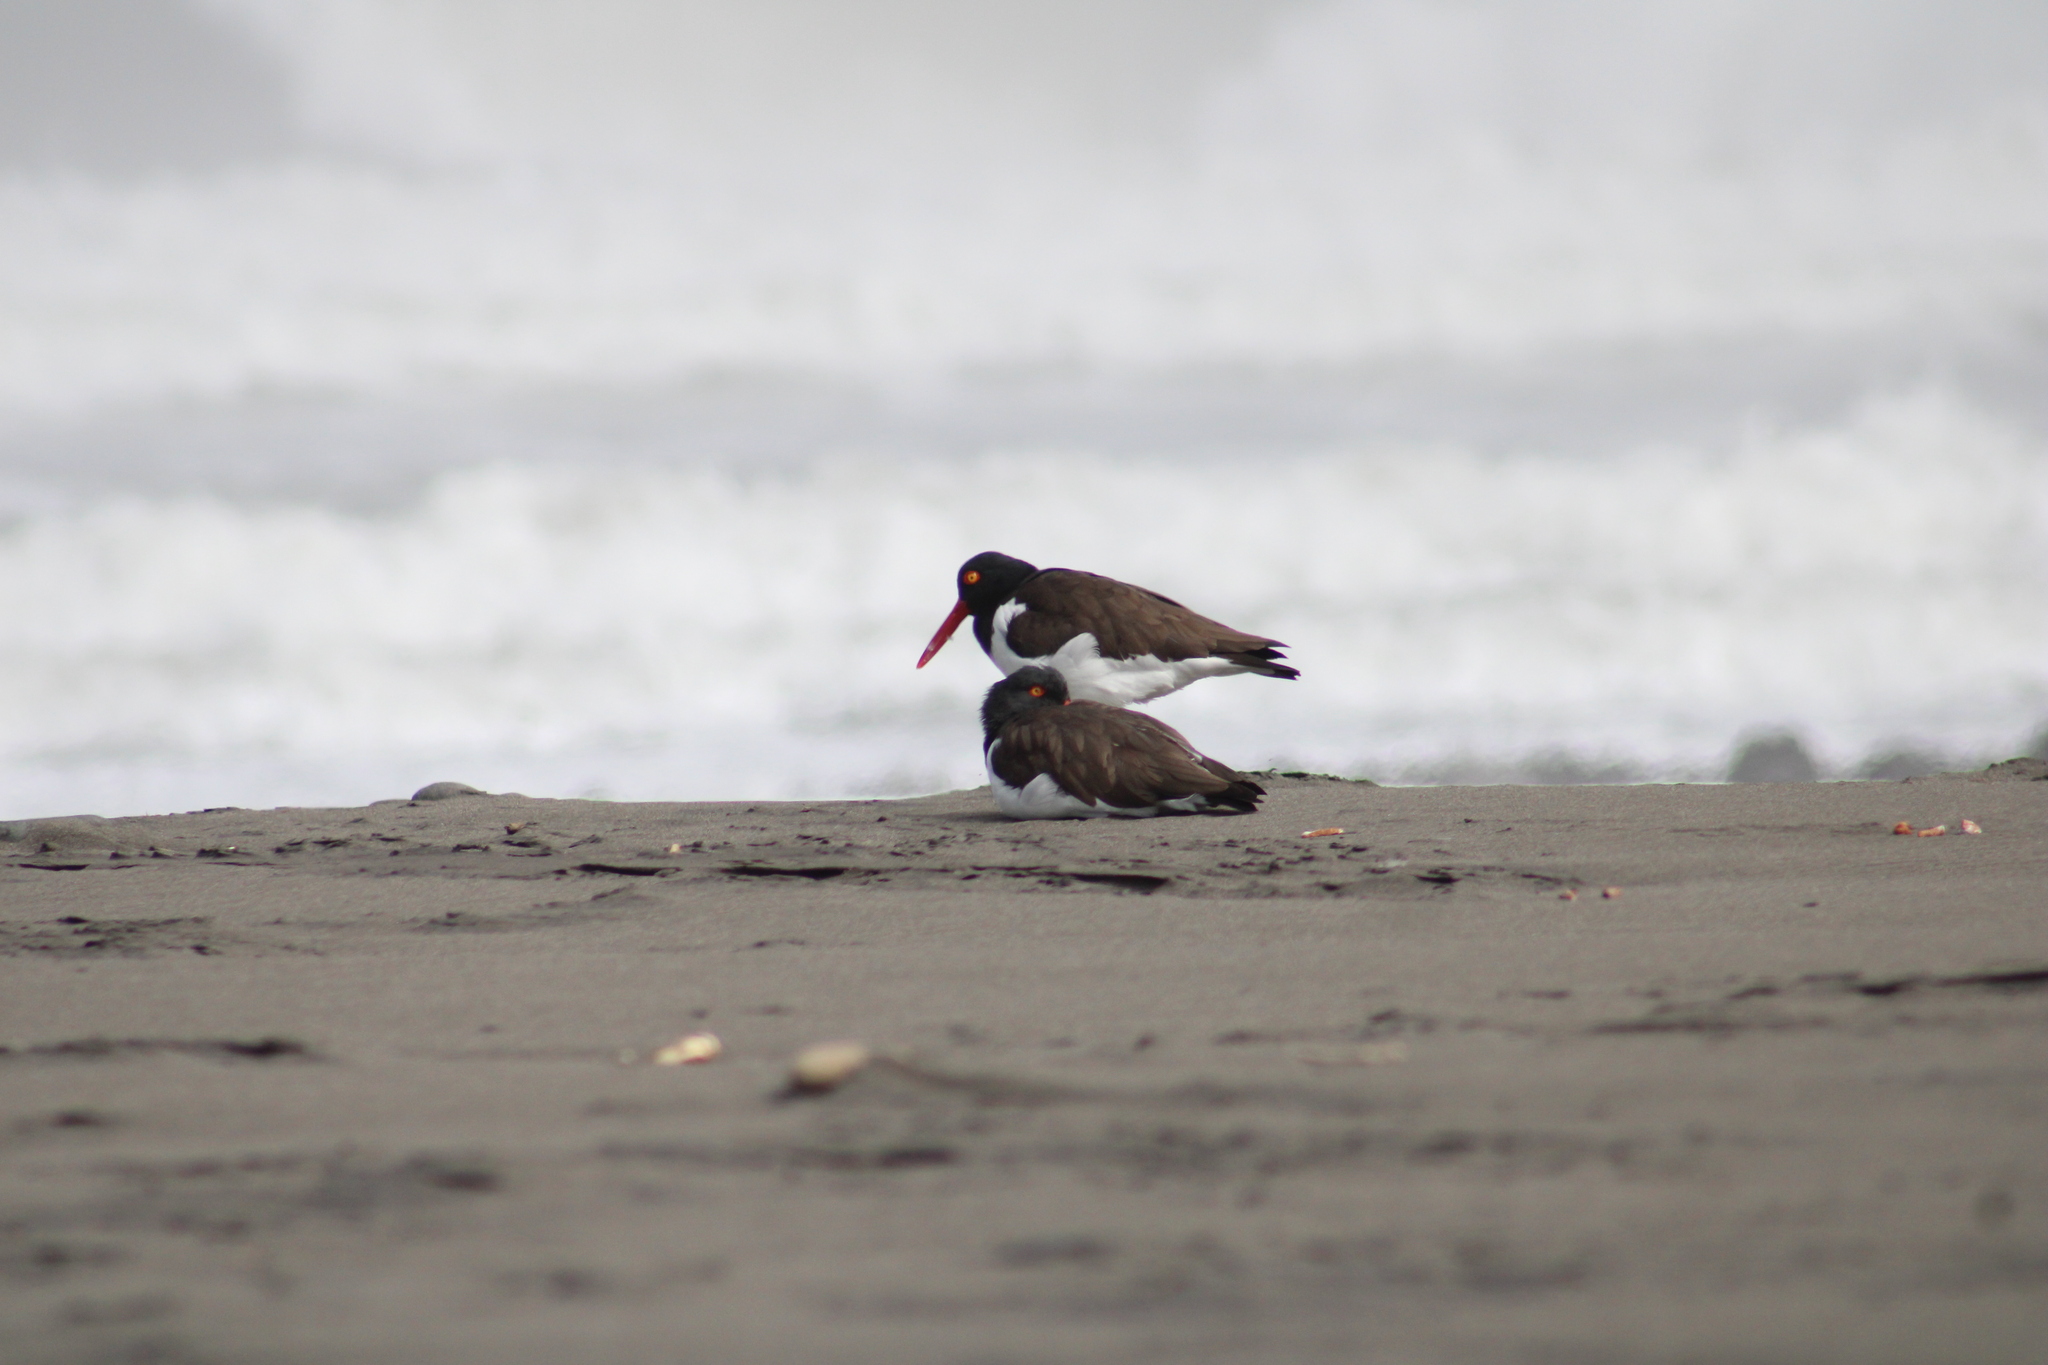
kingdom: Animalia
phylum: Chordata
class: Aves
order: Charadriiformes
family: Haematopodidae
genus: Haematopus
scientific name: Haematopus palliatus
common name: American oystercatcher
